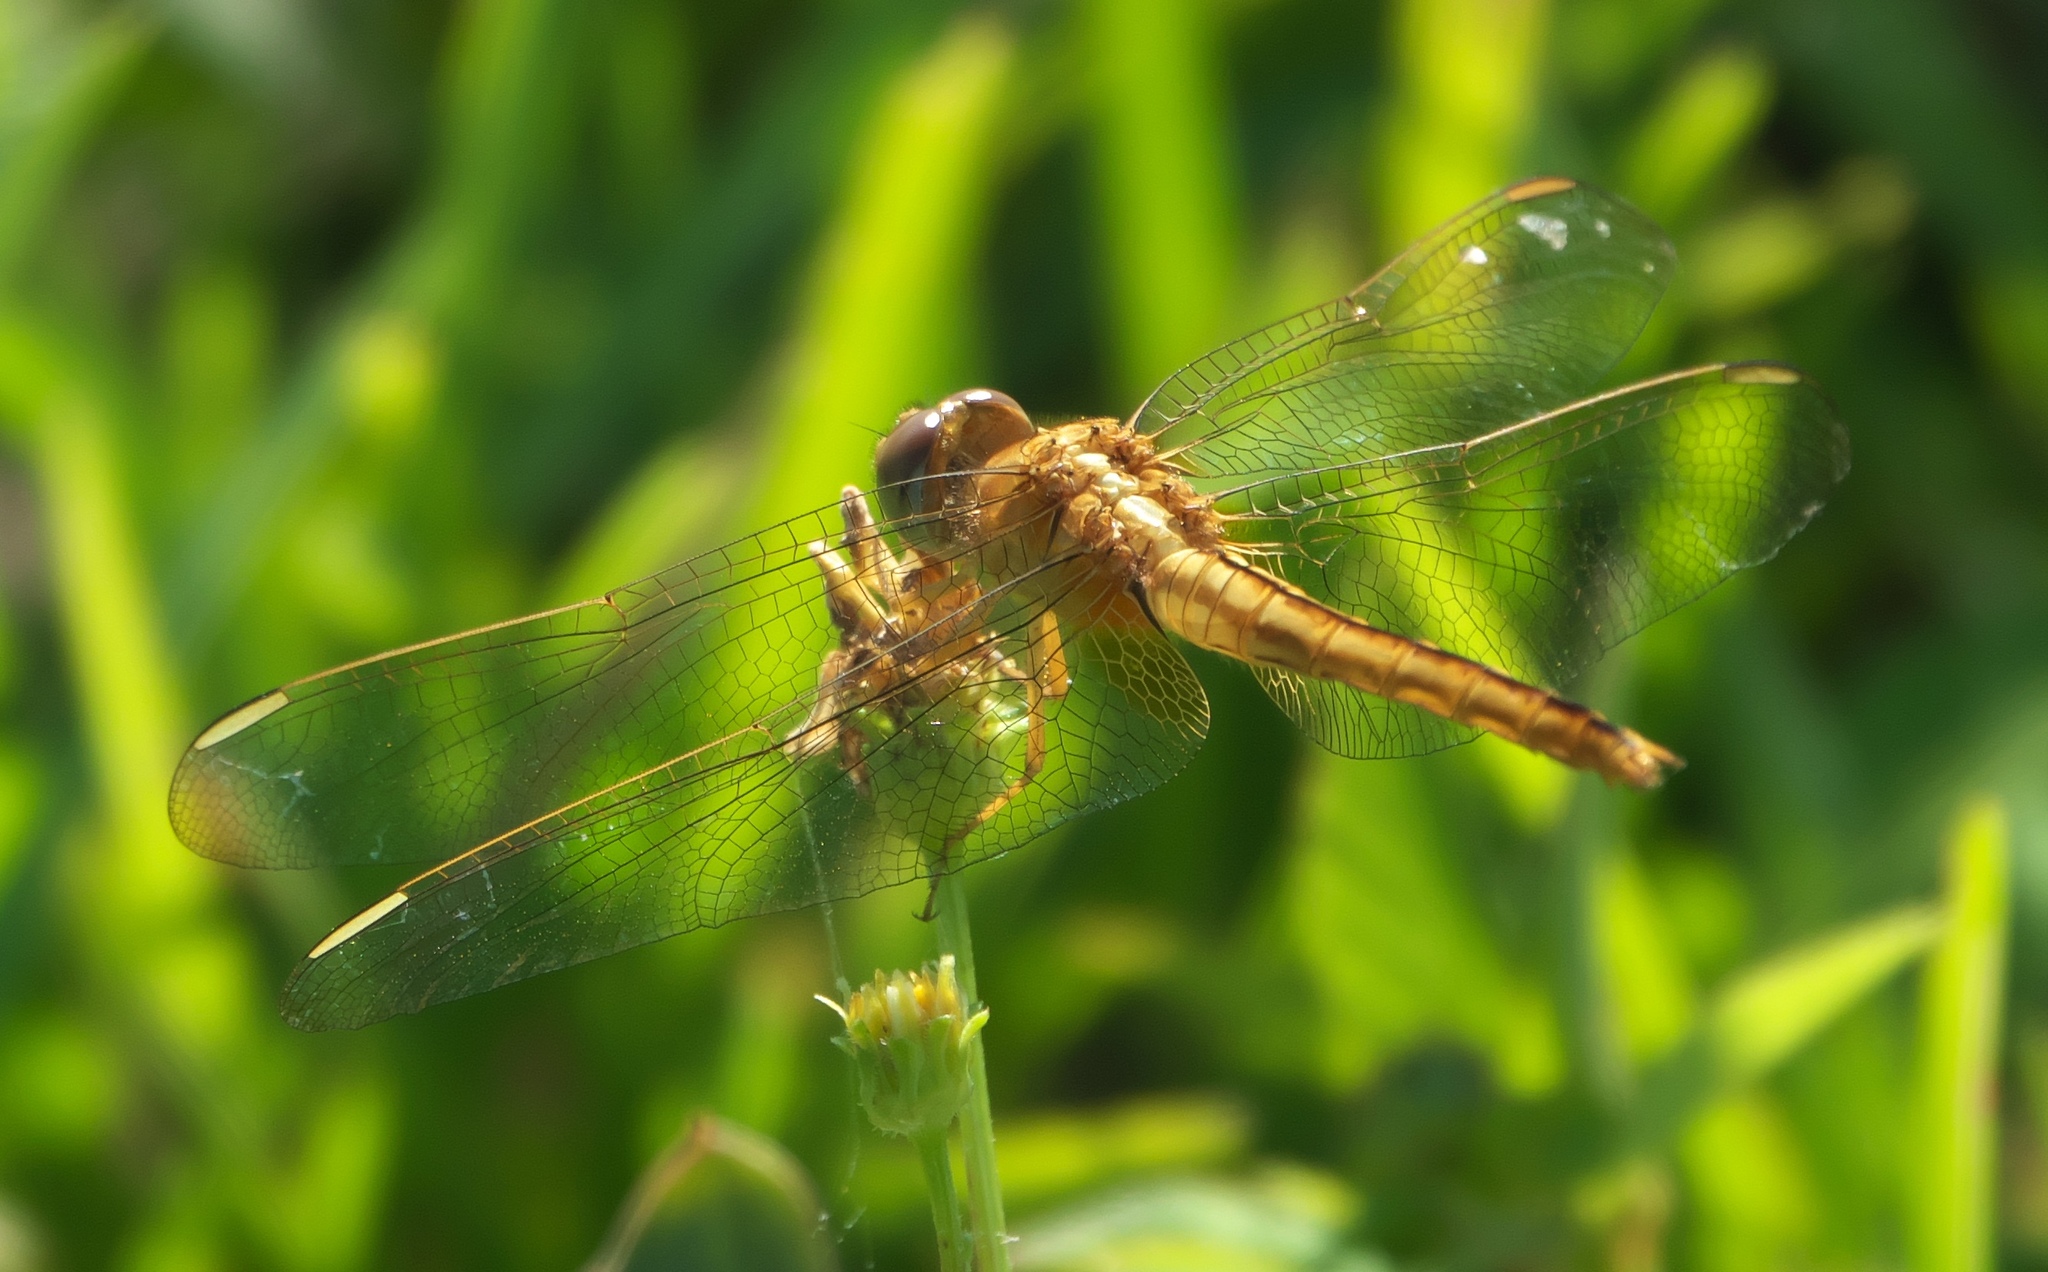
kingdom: Animalia
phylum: Arthropoda
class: Insecta
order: Odonata
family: Libellulidae
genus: Crocothemis
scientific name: Crocothemis servilia
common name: Scarlet skimmer
